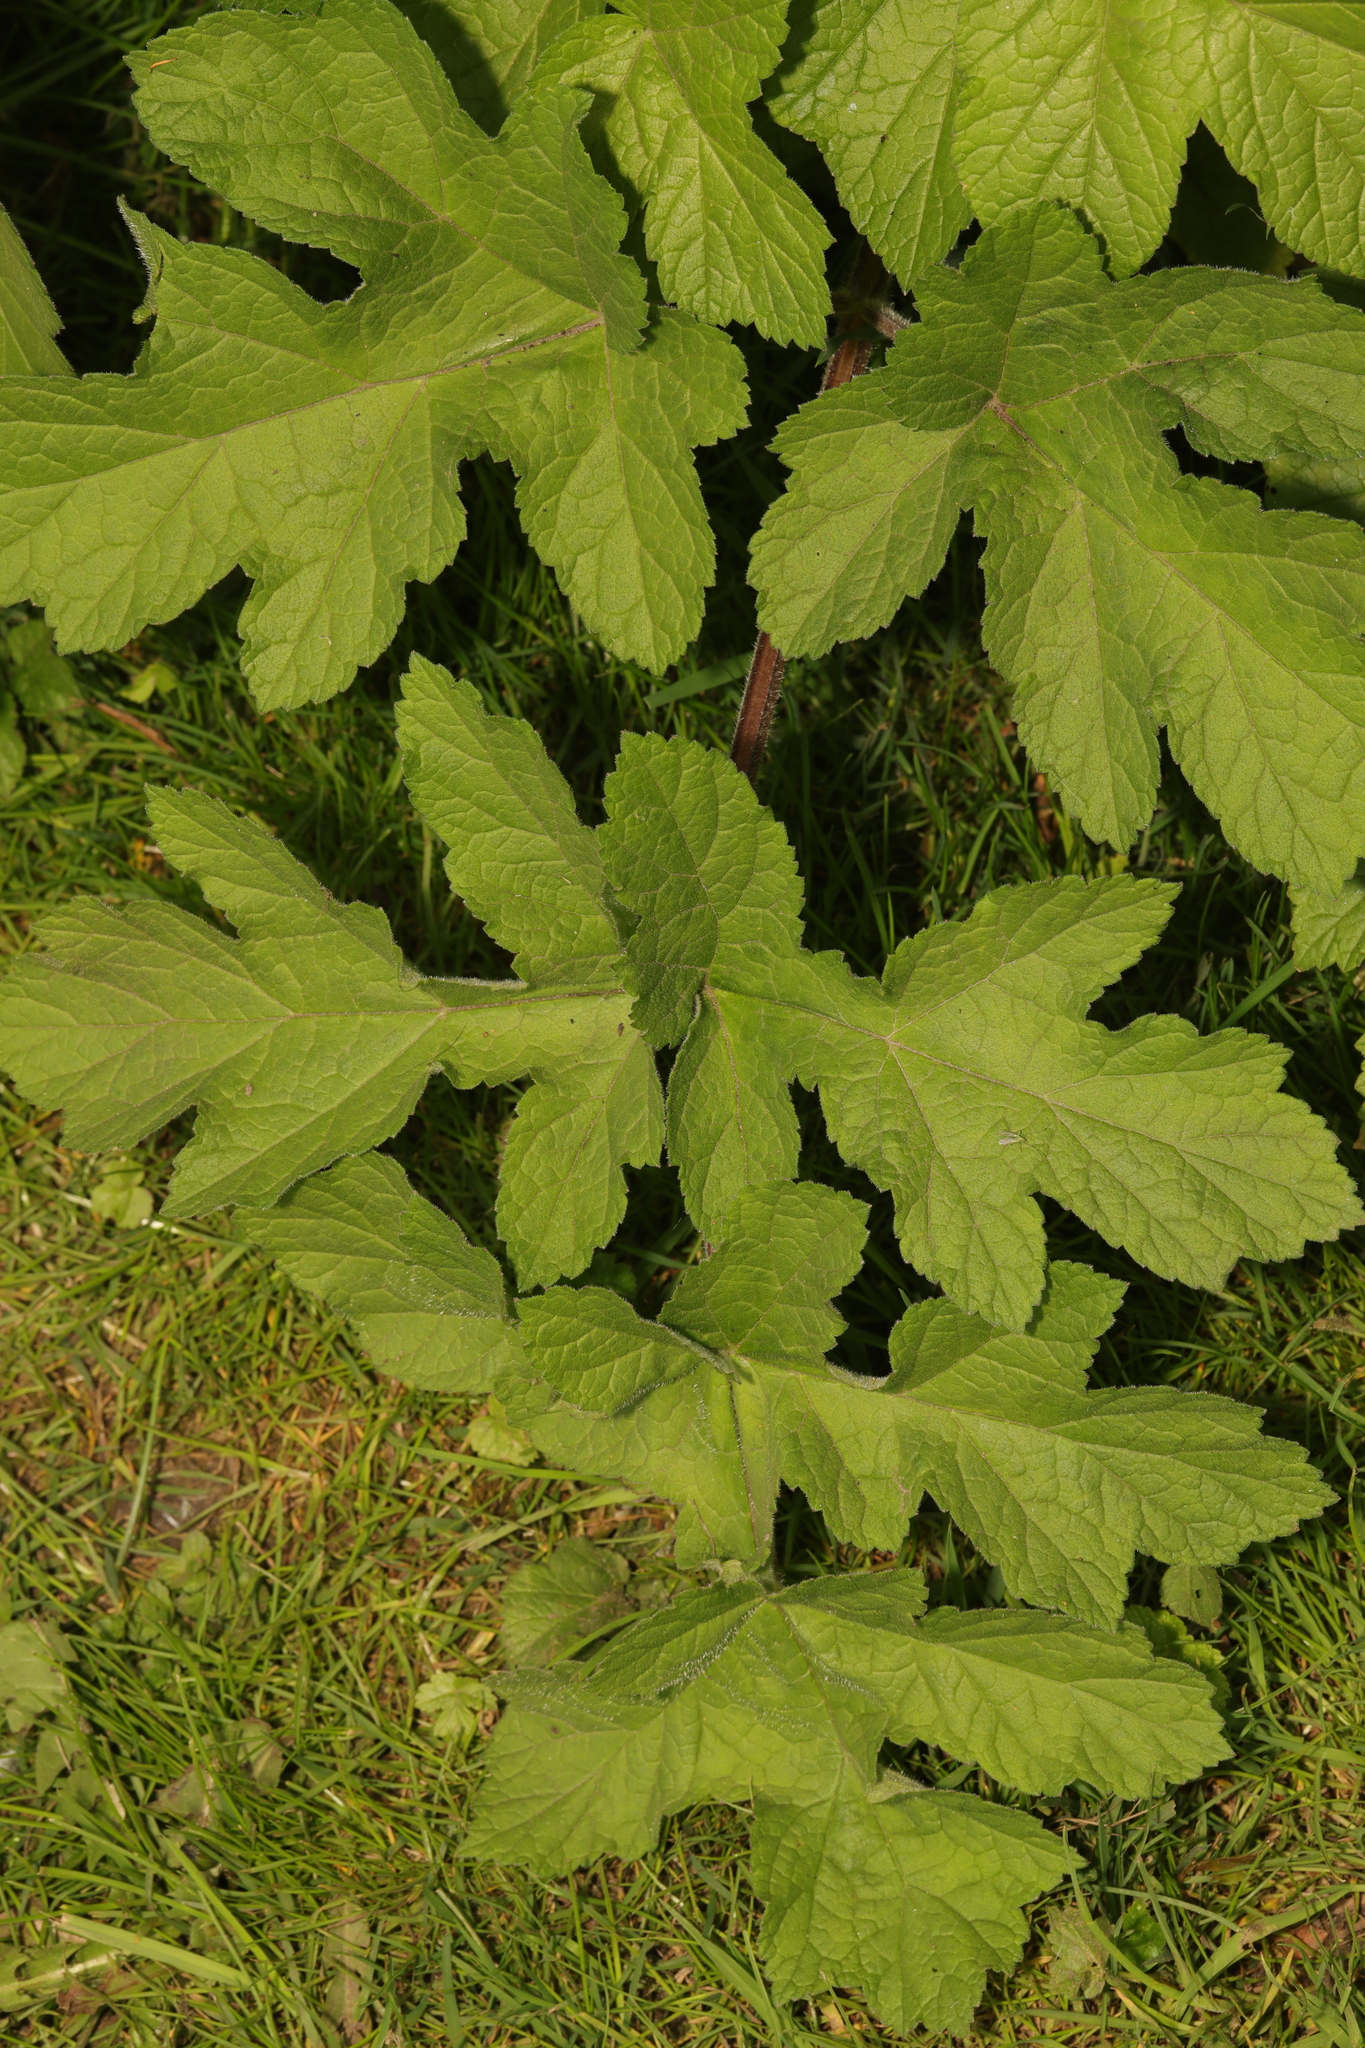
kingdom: Plantae
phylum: Tracheophyta
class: Magnoliopsida
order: Apiales
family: Apiaceae
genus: Heracleum
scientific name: Heracleum sphondylium
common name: Hogweed
